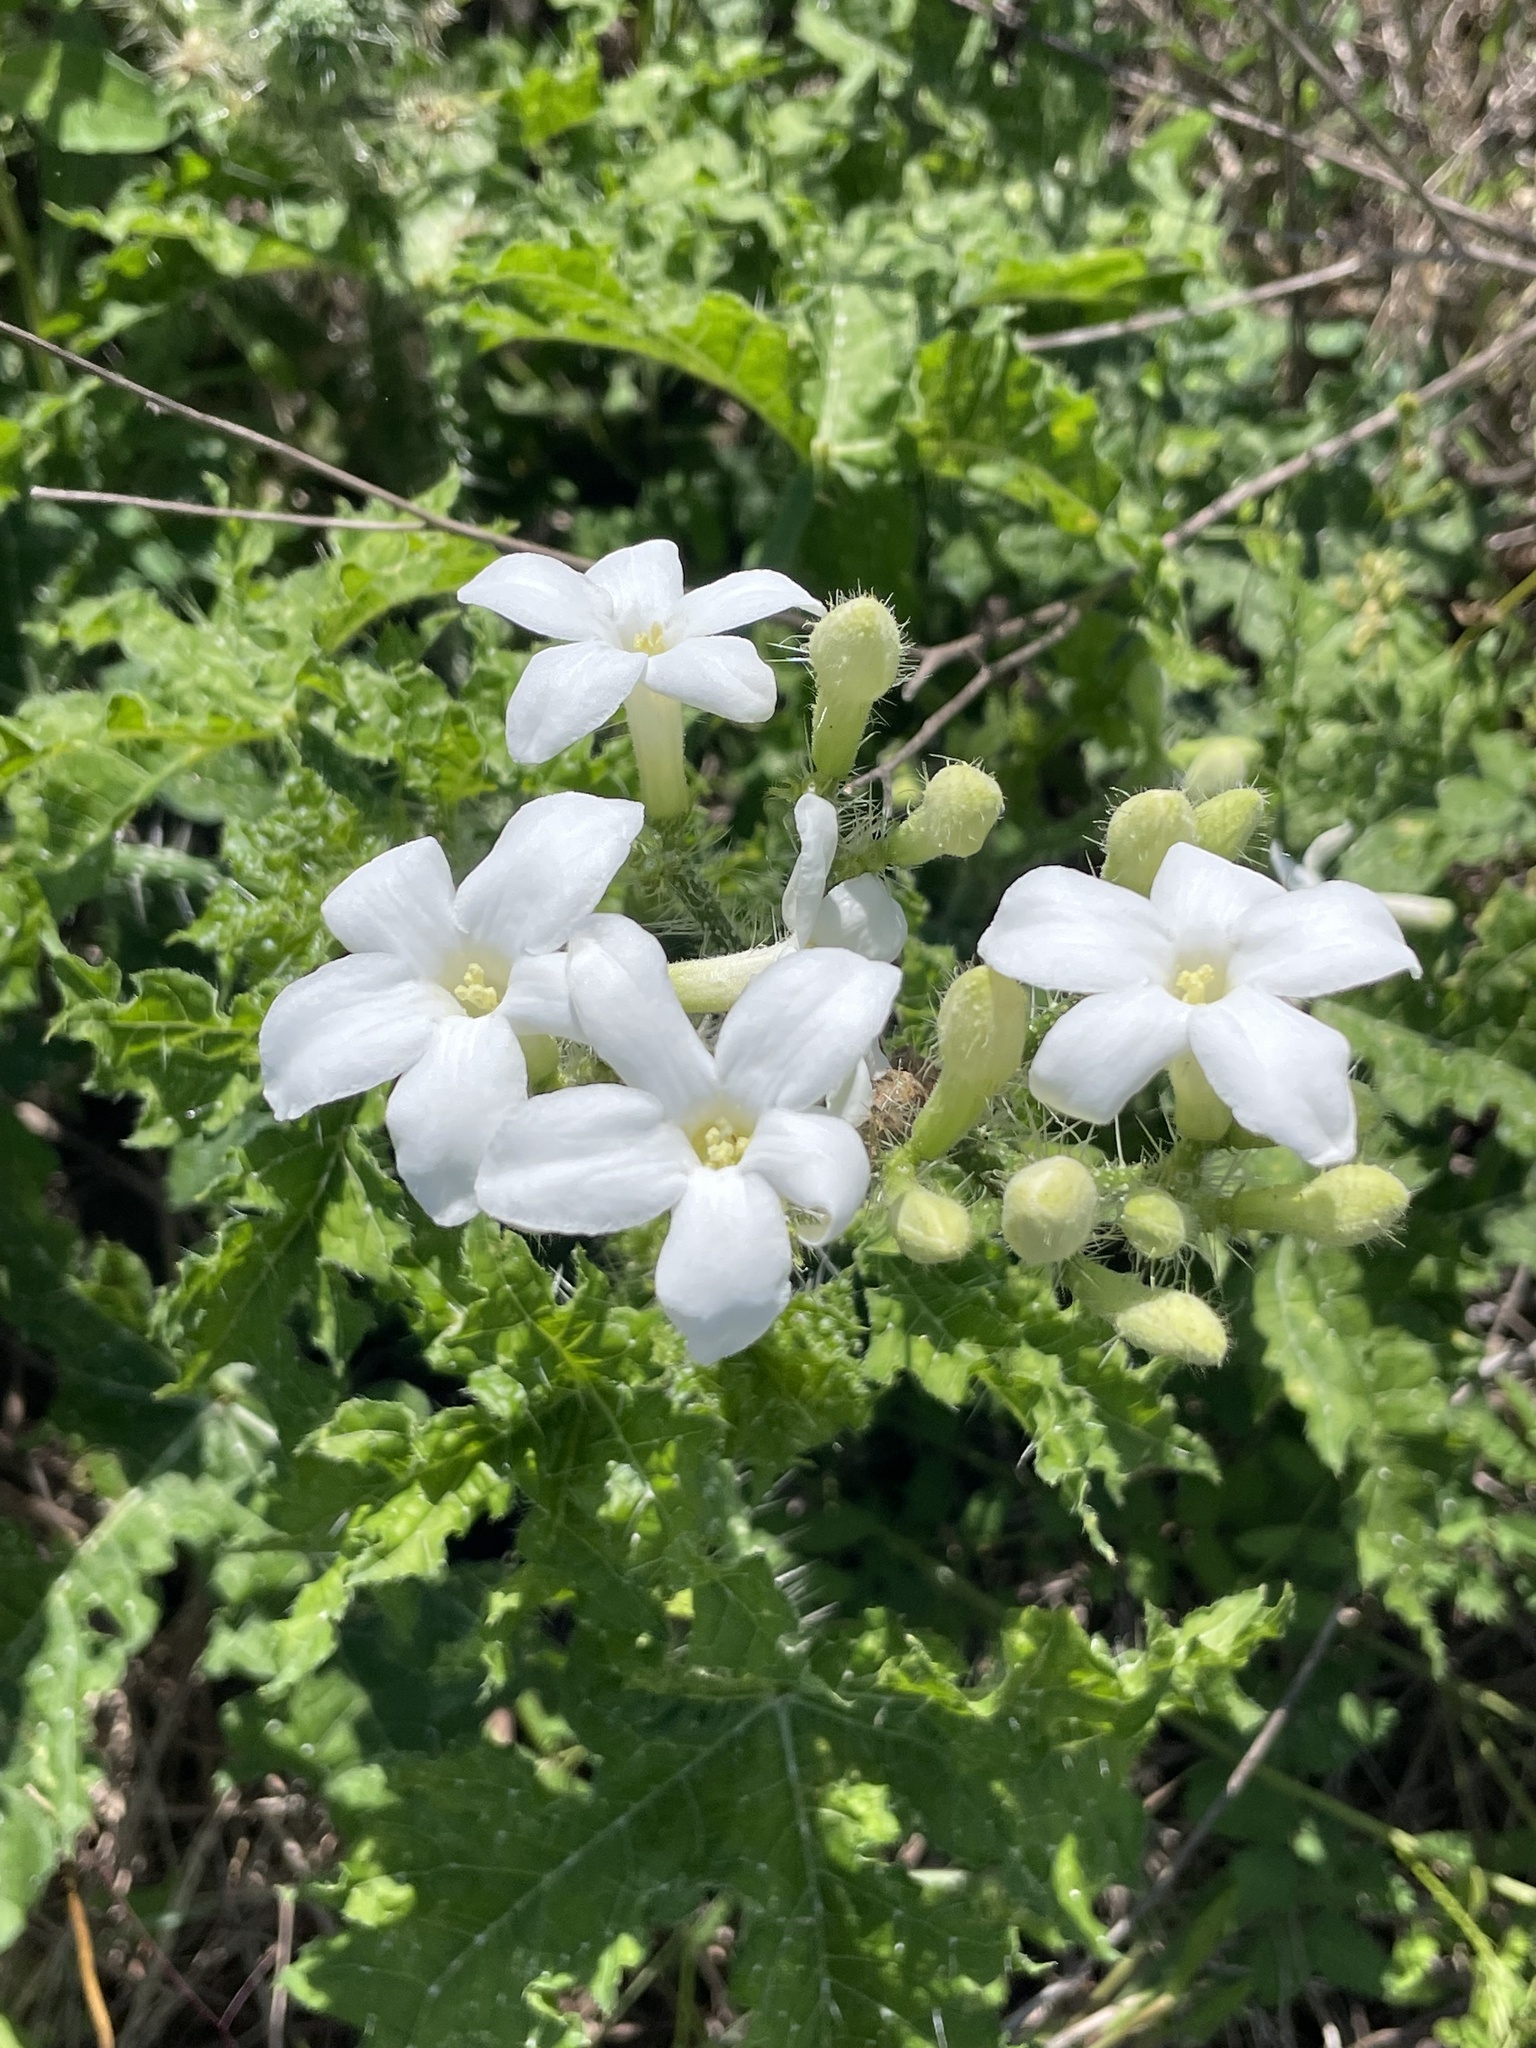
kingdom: Plantae
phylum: Tracheophyta
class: Magnoliopsida
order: Malpighiales
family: Euphorbiaceae
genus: Cnidoscolus
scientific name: Cnidoscolus texanus
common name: Texas bull-nettle
